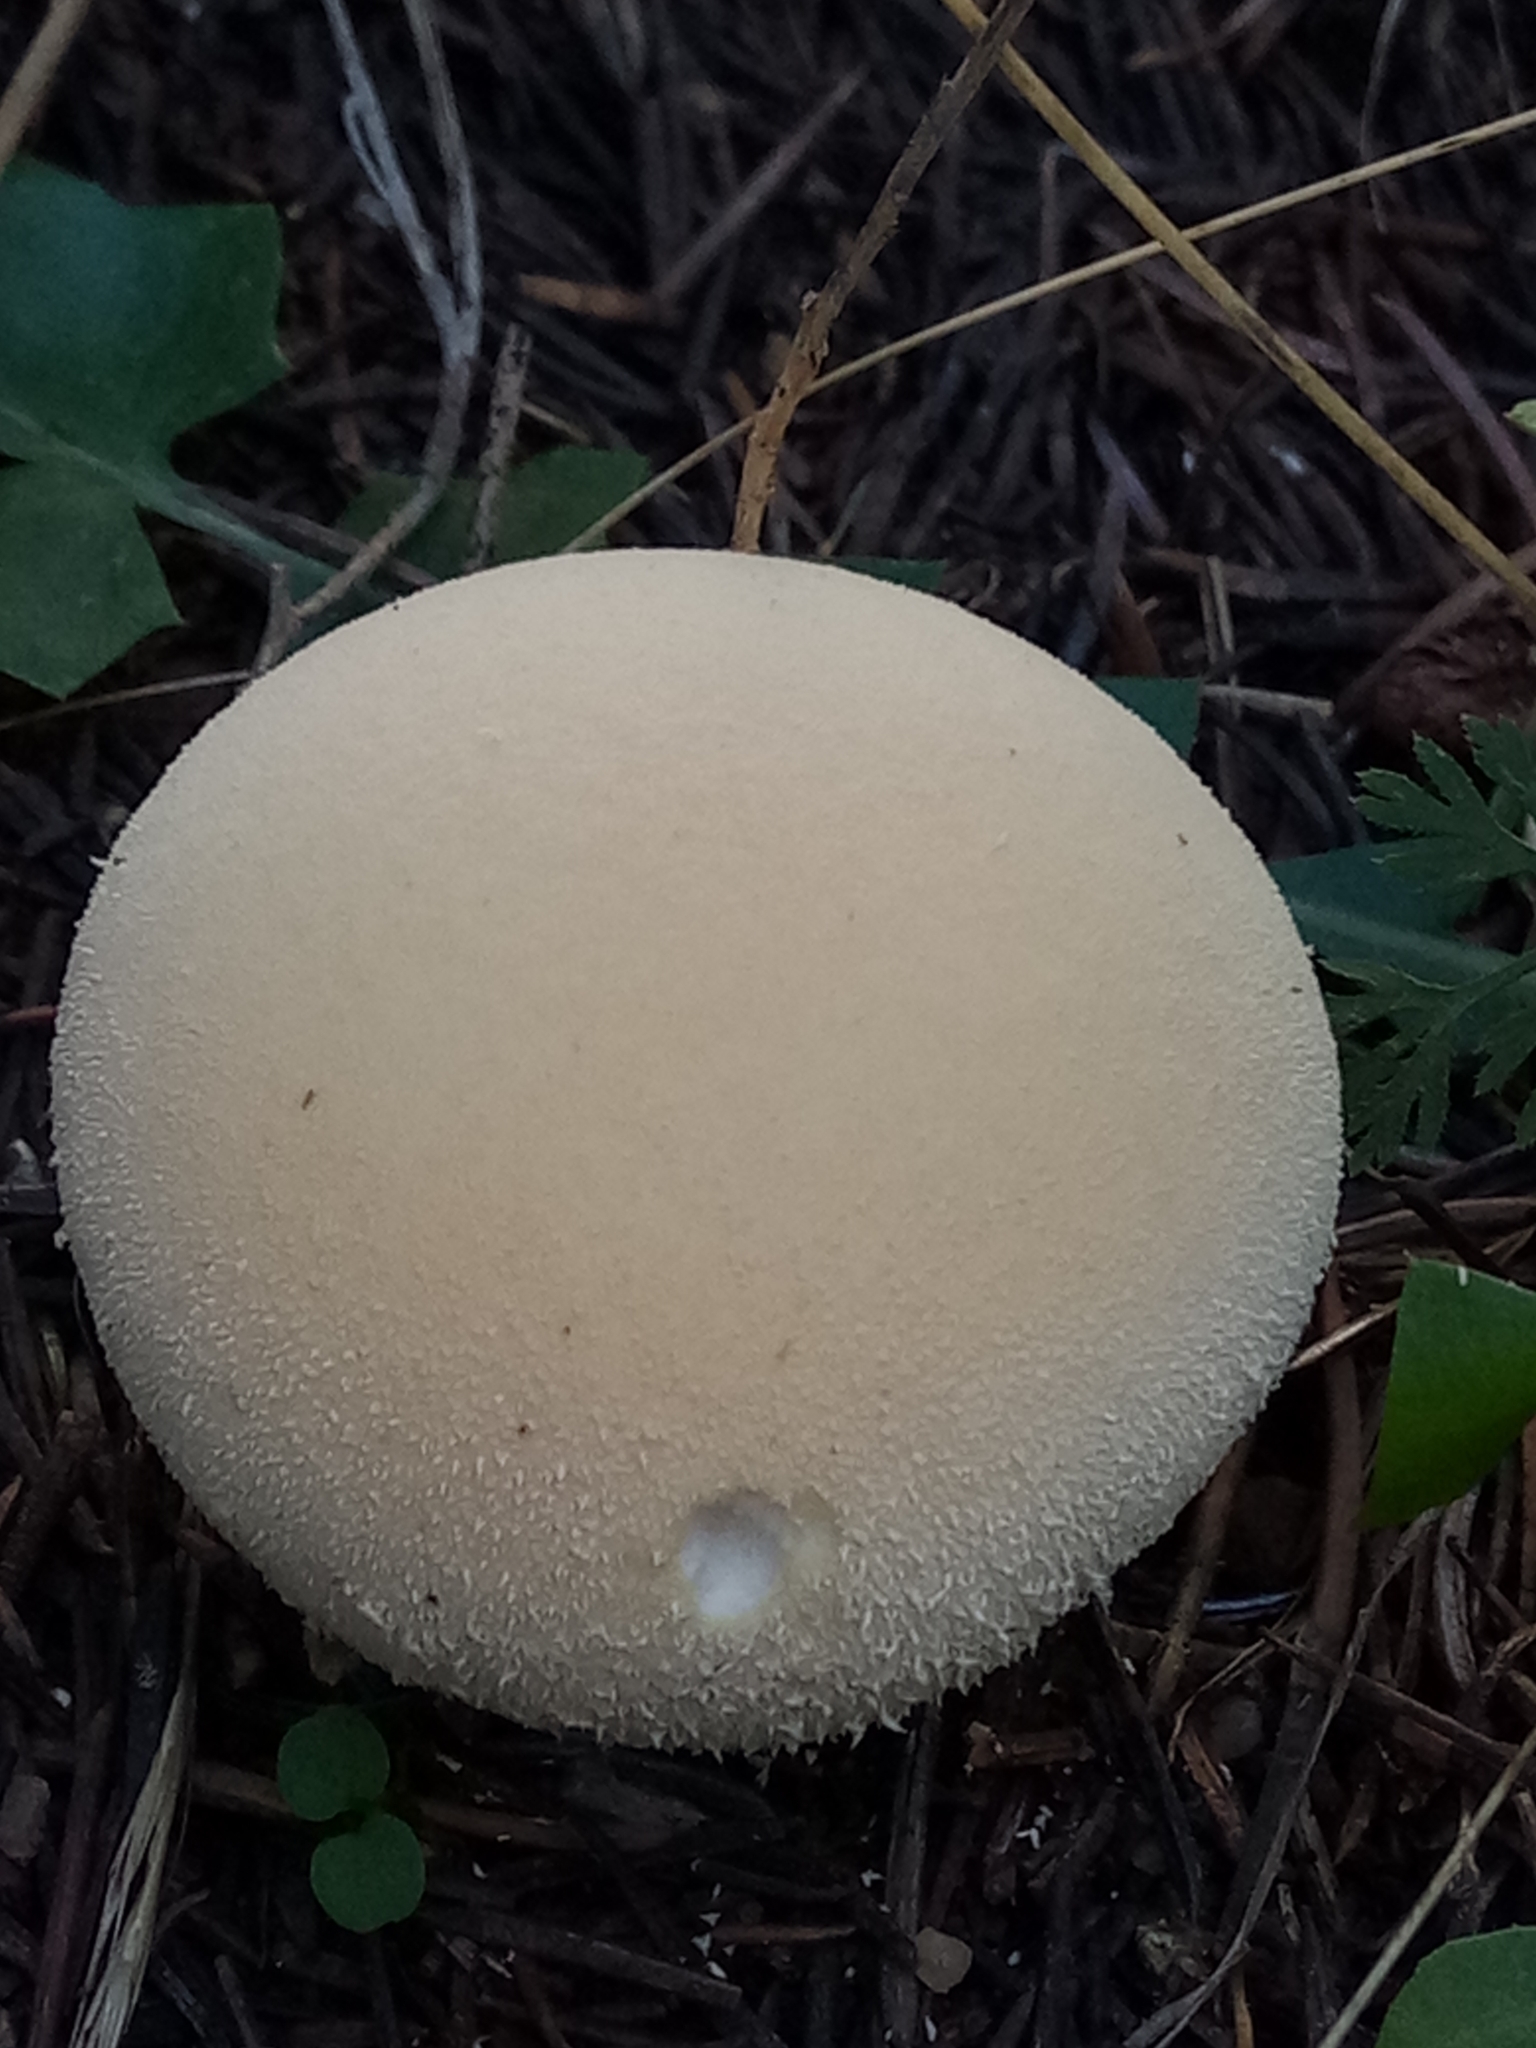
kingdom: Fungi
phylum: Basidiomycota
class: Agaricomycetes
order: Agaricales
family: Lycoperdaceae
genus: Lycoperdon
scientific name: Lycoperdon pratense
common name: Meadow puffball
